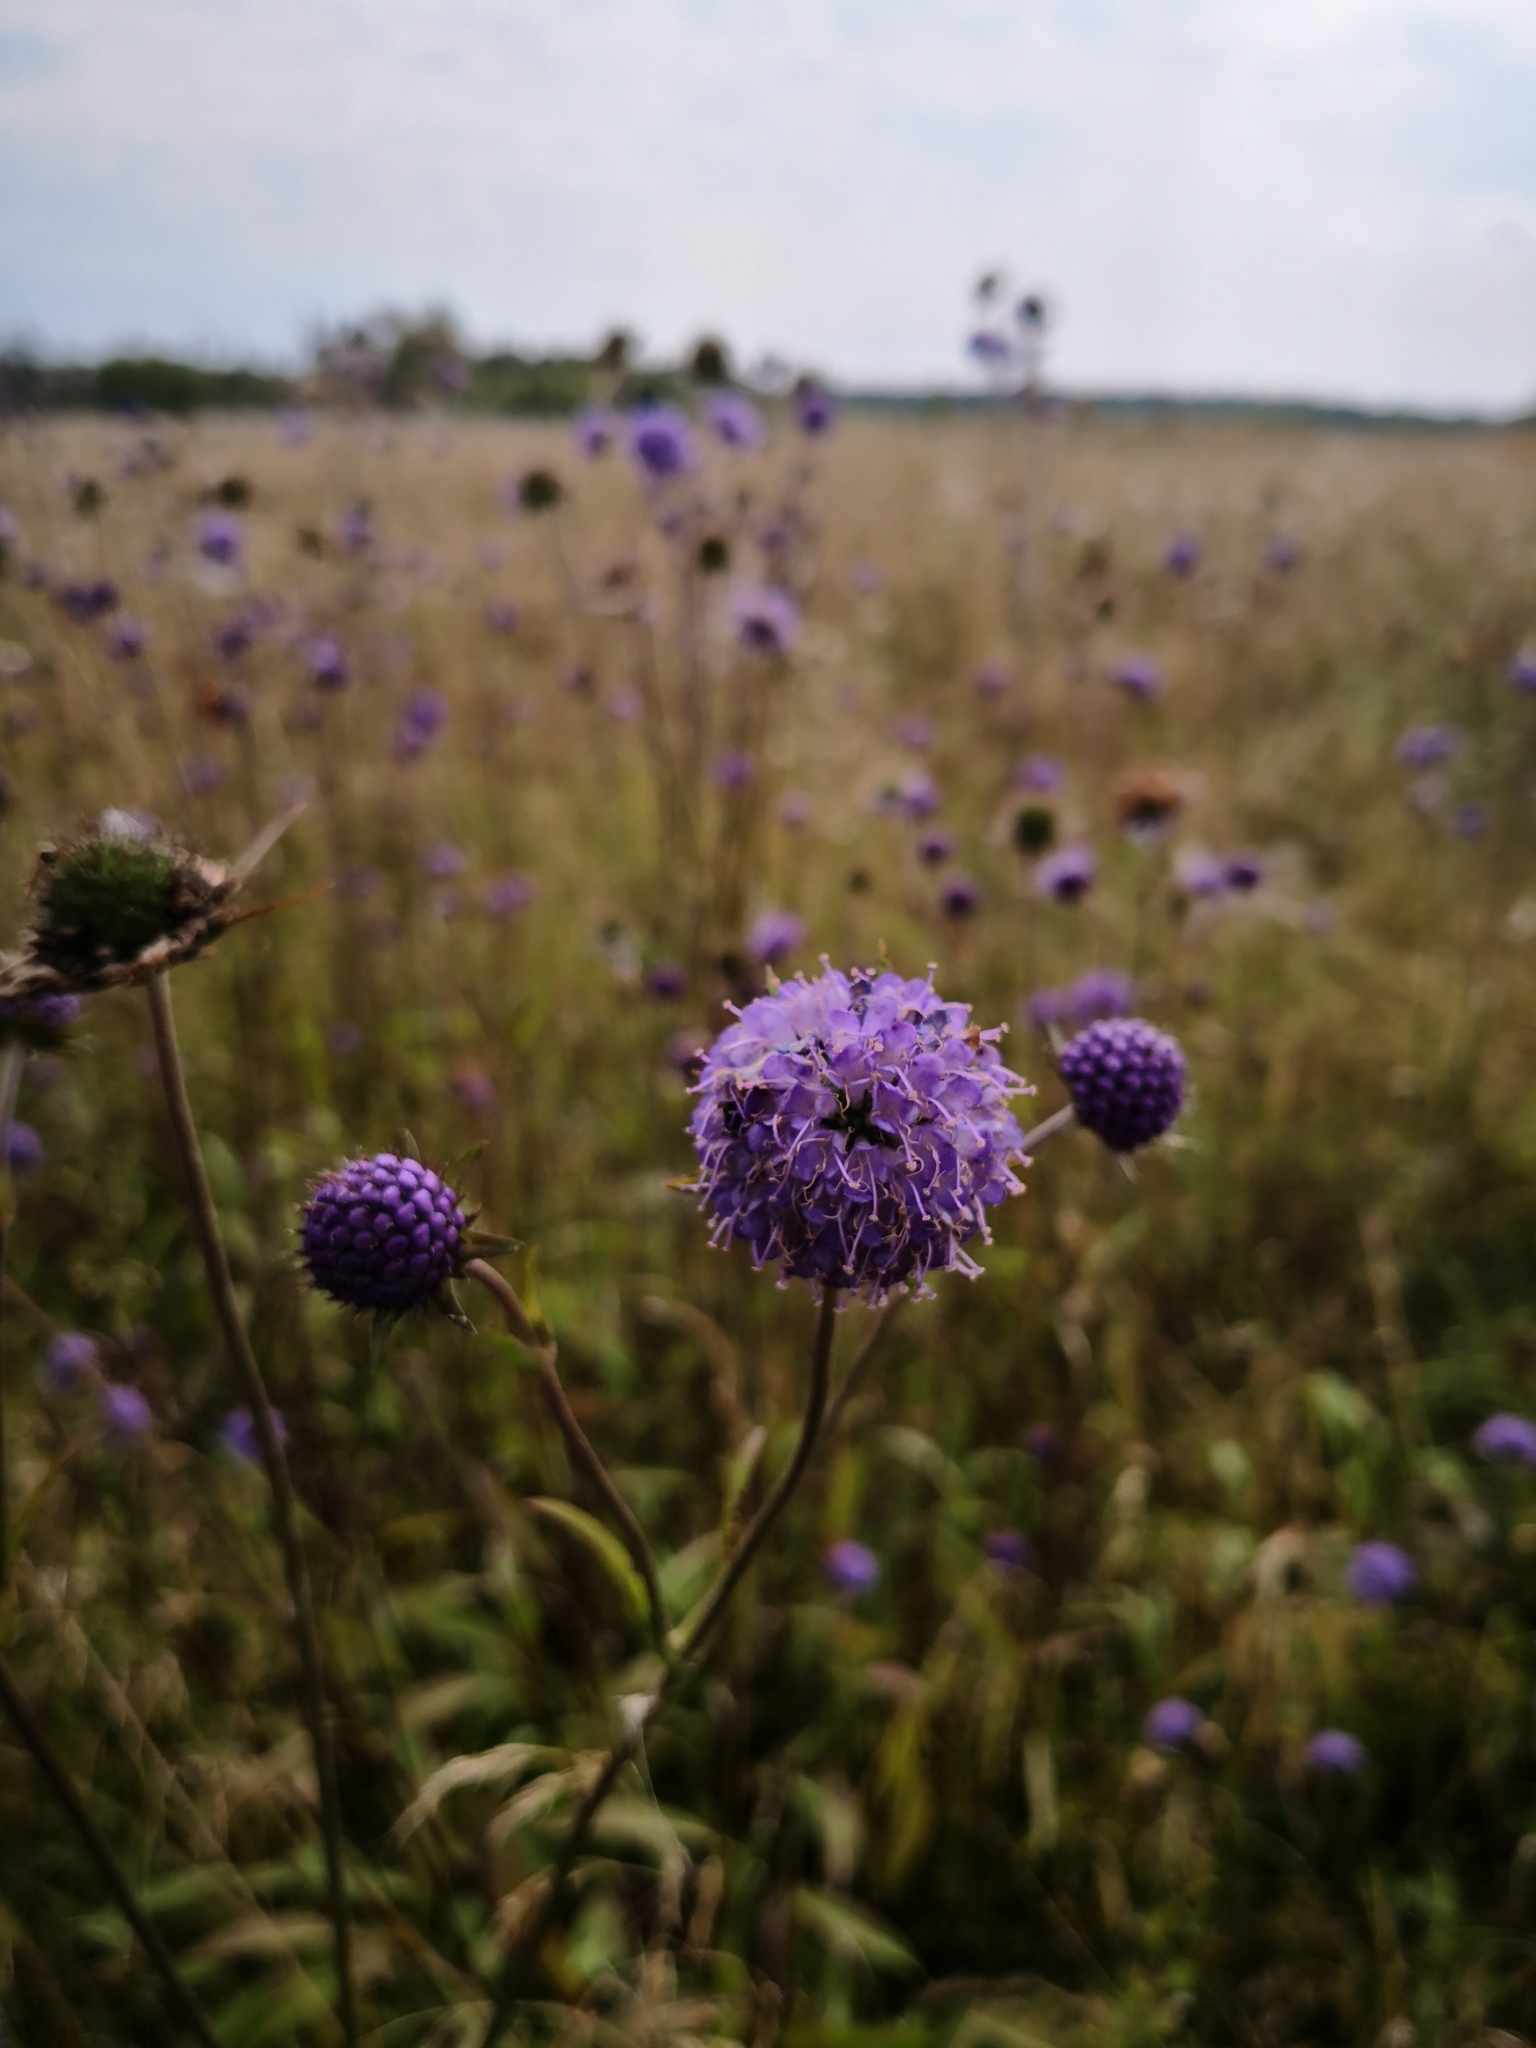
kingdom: Plantae
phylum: Tracheophyta
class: Magnoliopsida
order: Dipsacales
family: Caprifoliaceae
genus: Succisa
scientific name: Succisa pratensis
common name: Devil's-bit
